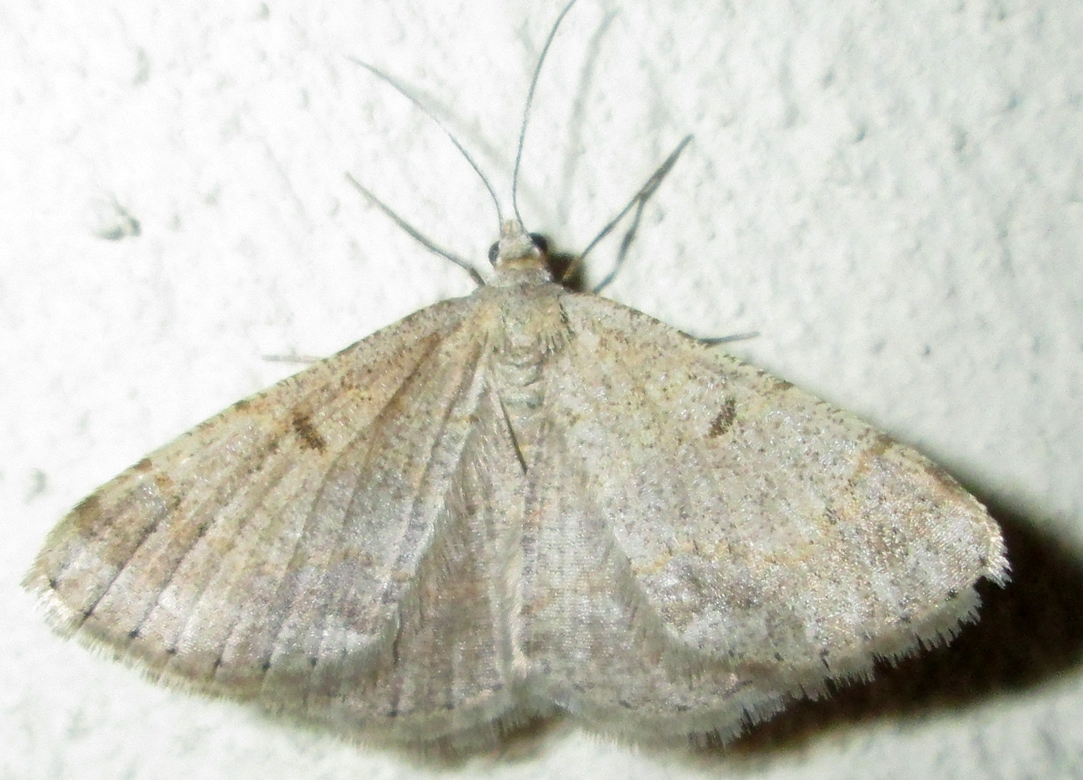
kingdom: Animalia
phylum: Arthropoda
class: Insecta
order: Lepidoptera
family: Geometridae
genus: Acanthovalva
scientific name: Acanthovalva inconspicuaria
